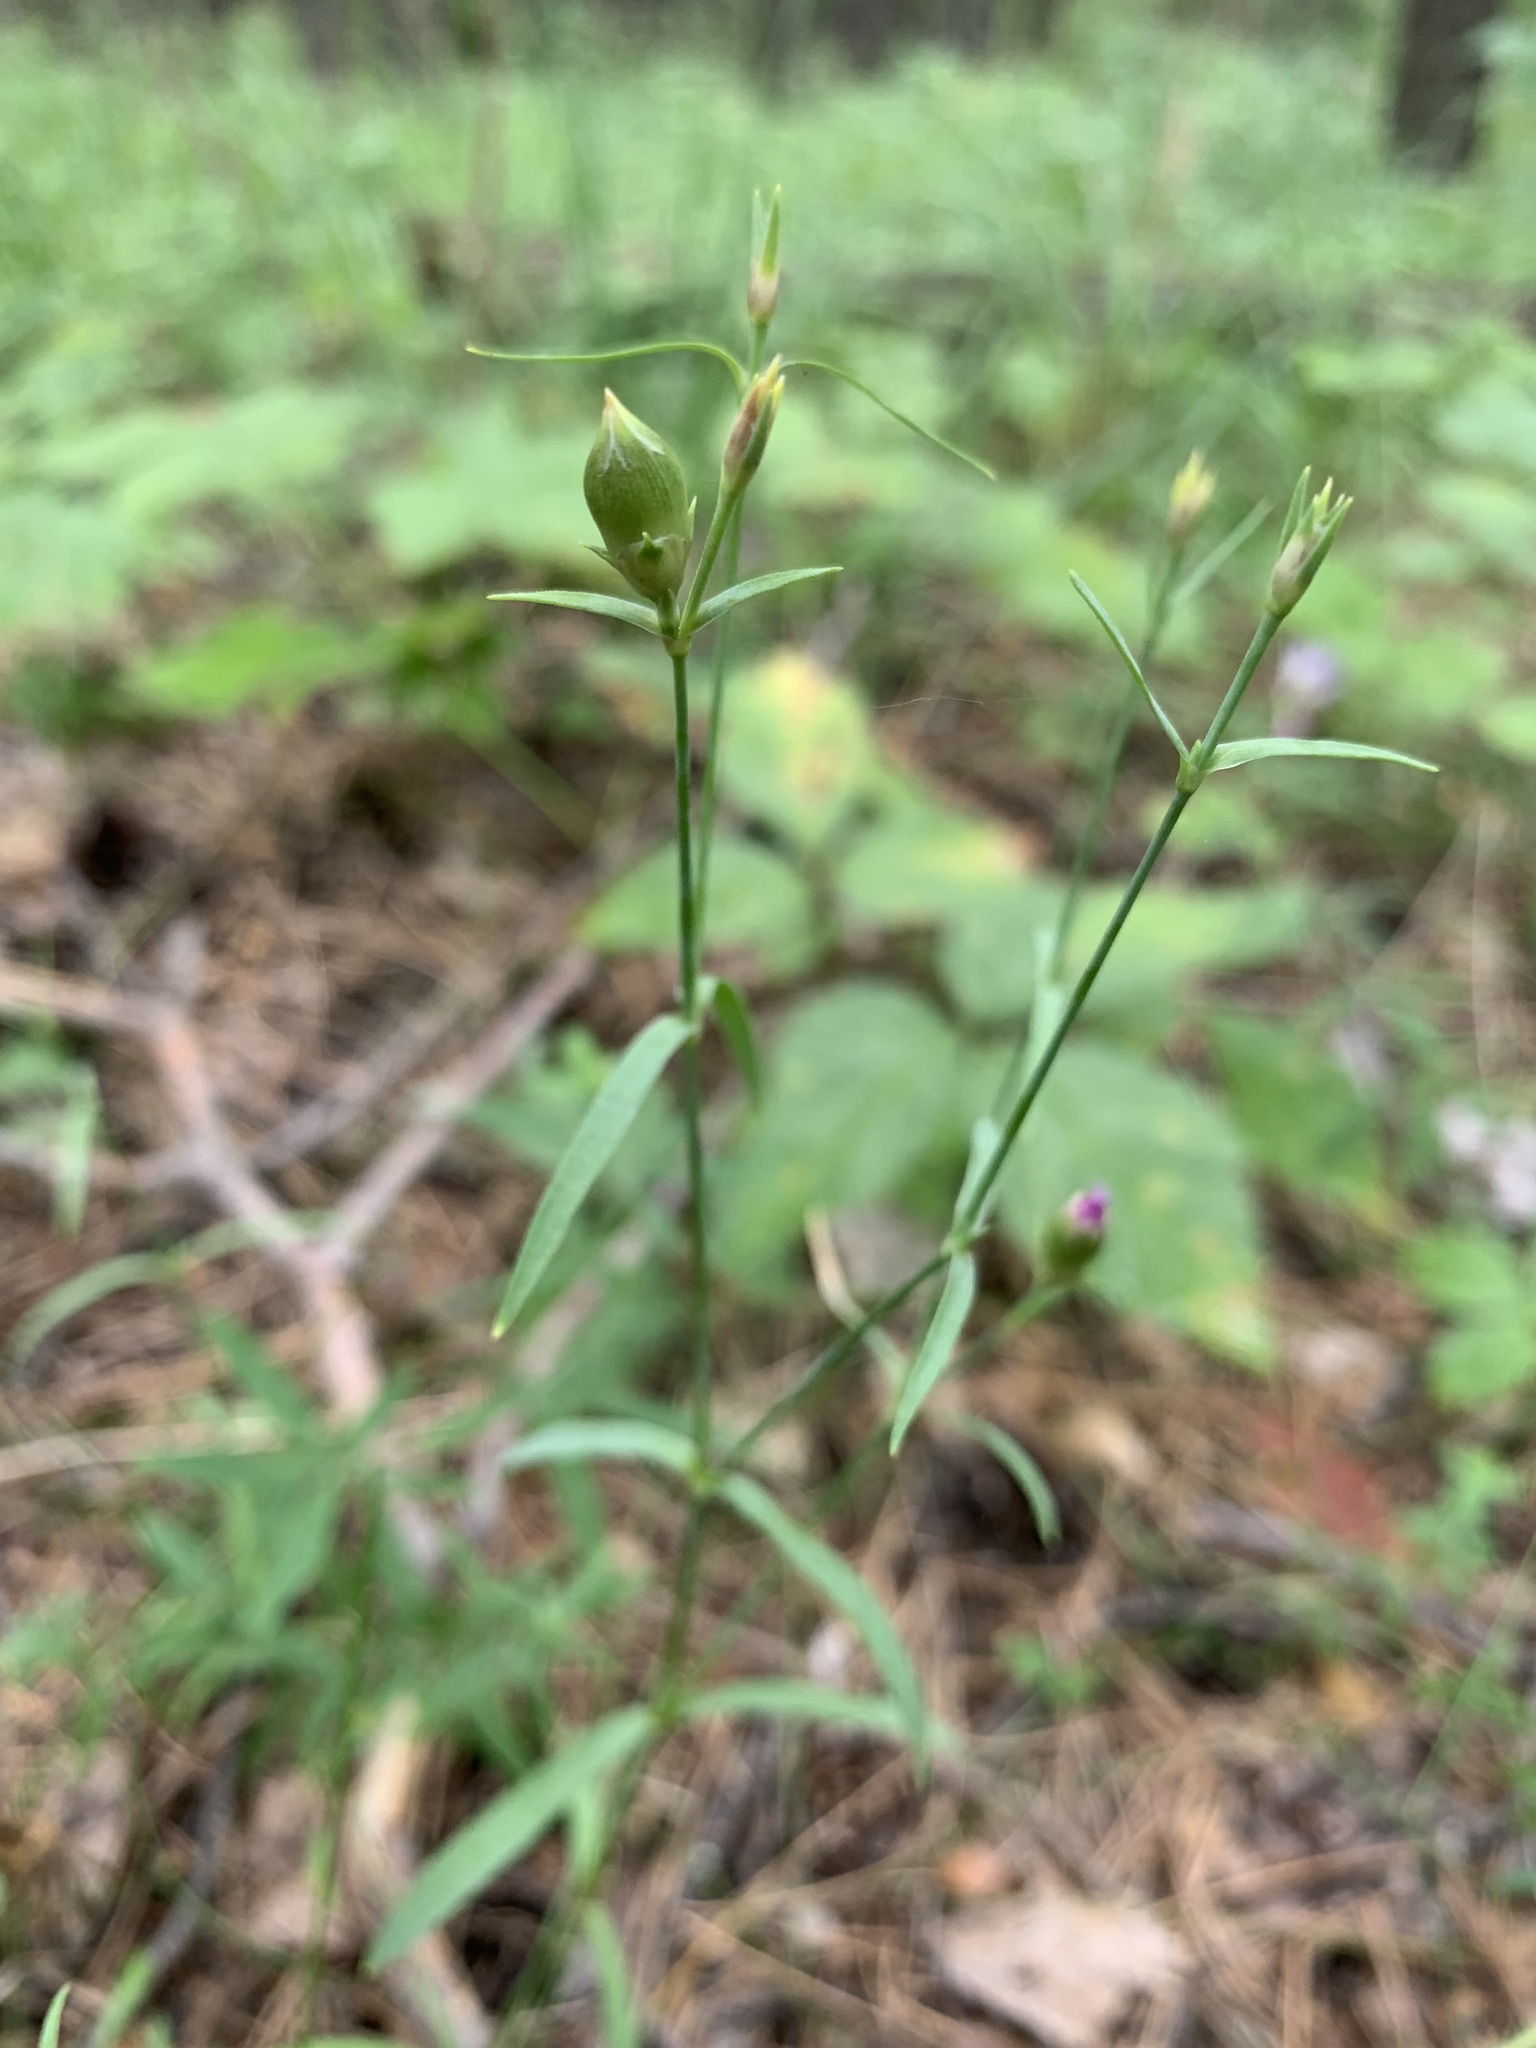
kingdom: Plantae
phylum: Tracheophyta
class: Magnoliopsida
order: Caryophyllales
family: Caryophyllaceae
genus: Dianthus
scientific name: Dianthus chinensis
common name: Rainbow pink
